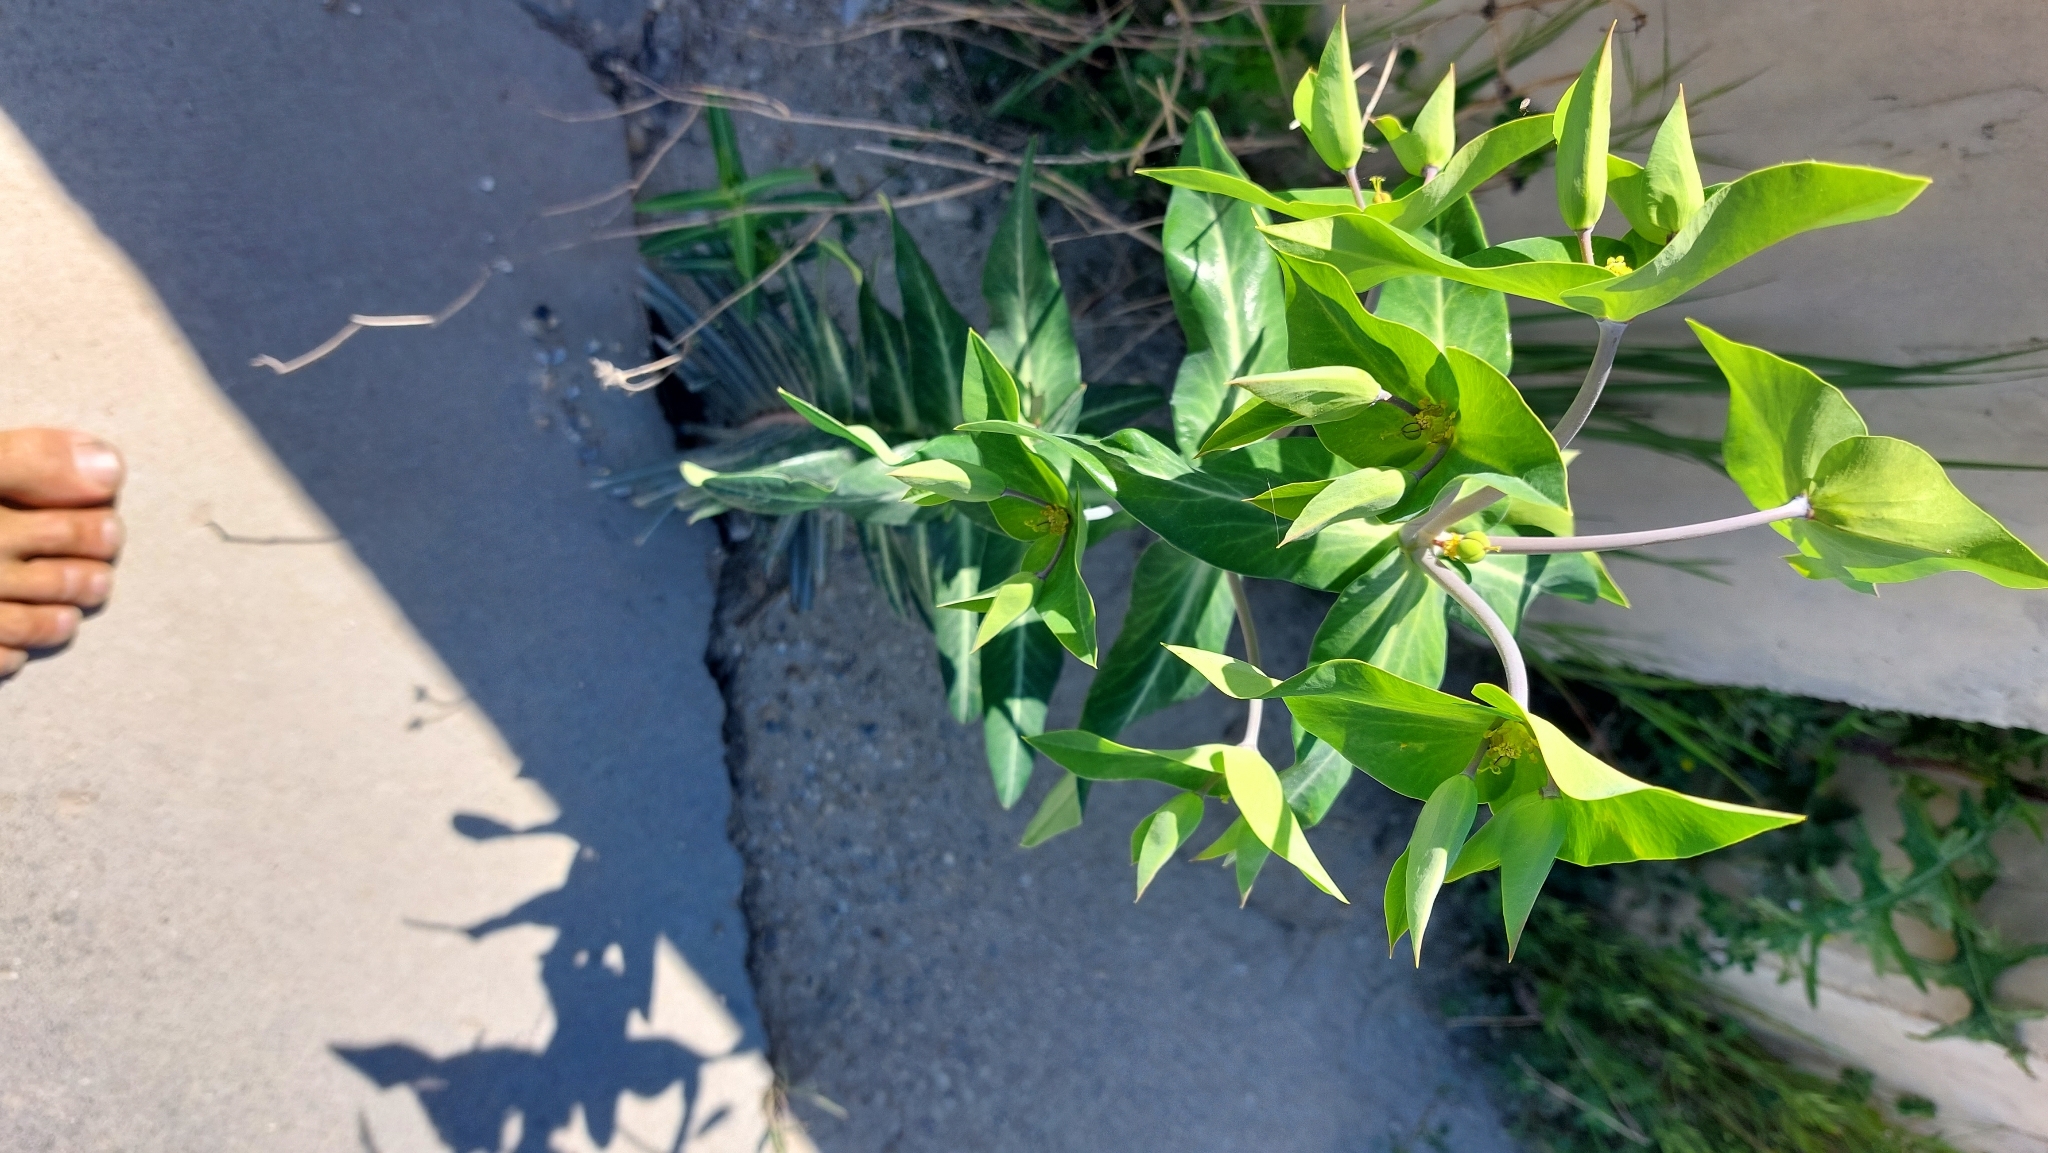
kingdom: Plantae
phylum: Tracheophyta
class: Magnoliopsida
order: Malpighiales
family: Euphorbiaceae
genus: Euphorbia
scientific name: Euphorbia lathyris
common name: Caper spurge
